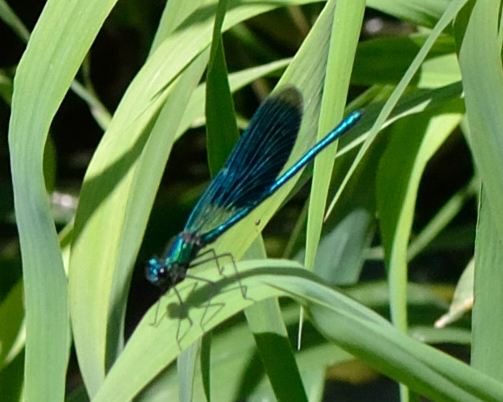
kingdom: Animalia
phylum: Arthropoda
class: Insecta
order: Odonata
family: Calopterygidae
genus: Calopteryx
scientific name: Calopteryx splendens
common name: Banded demoiselle
